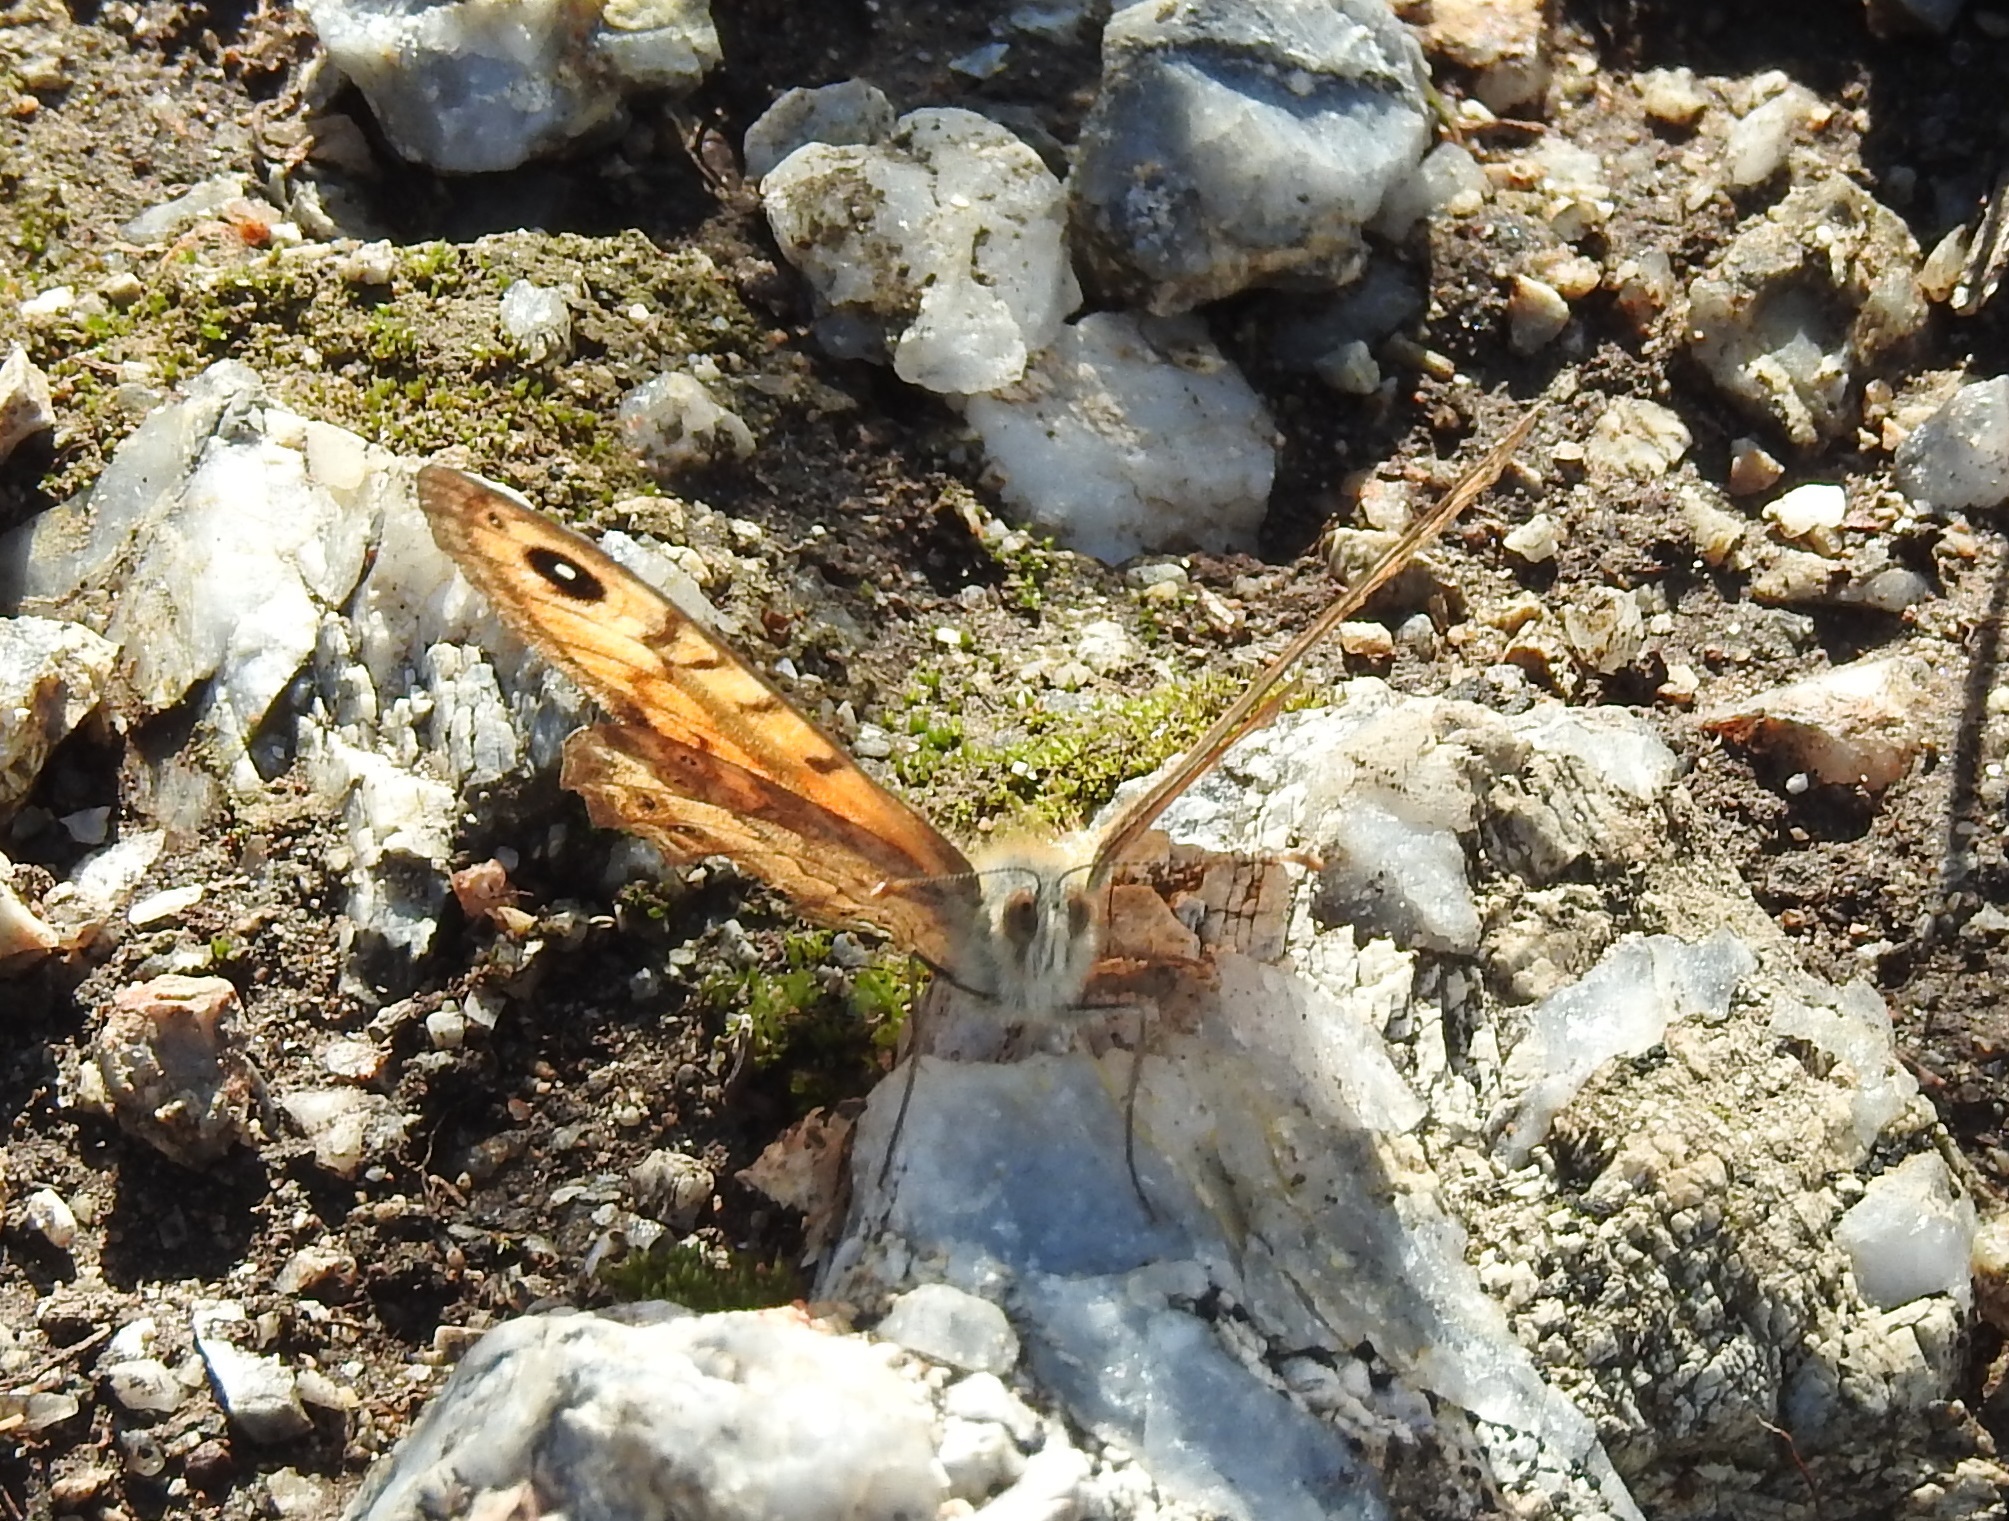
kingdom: Animalia
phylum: Arthropoda
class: Insecta
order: Lepidoptera
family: Nymphalidae
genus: Pararge
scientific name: Pararge Lasiommata megera
